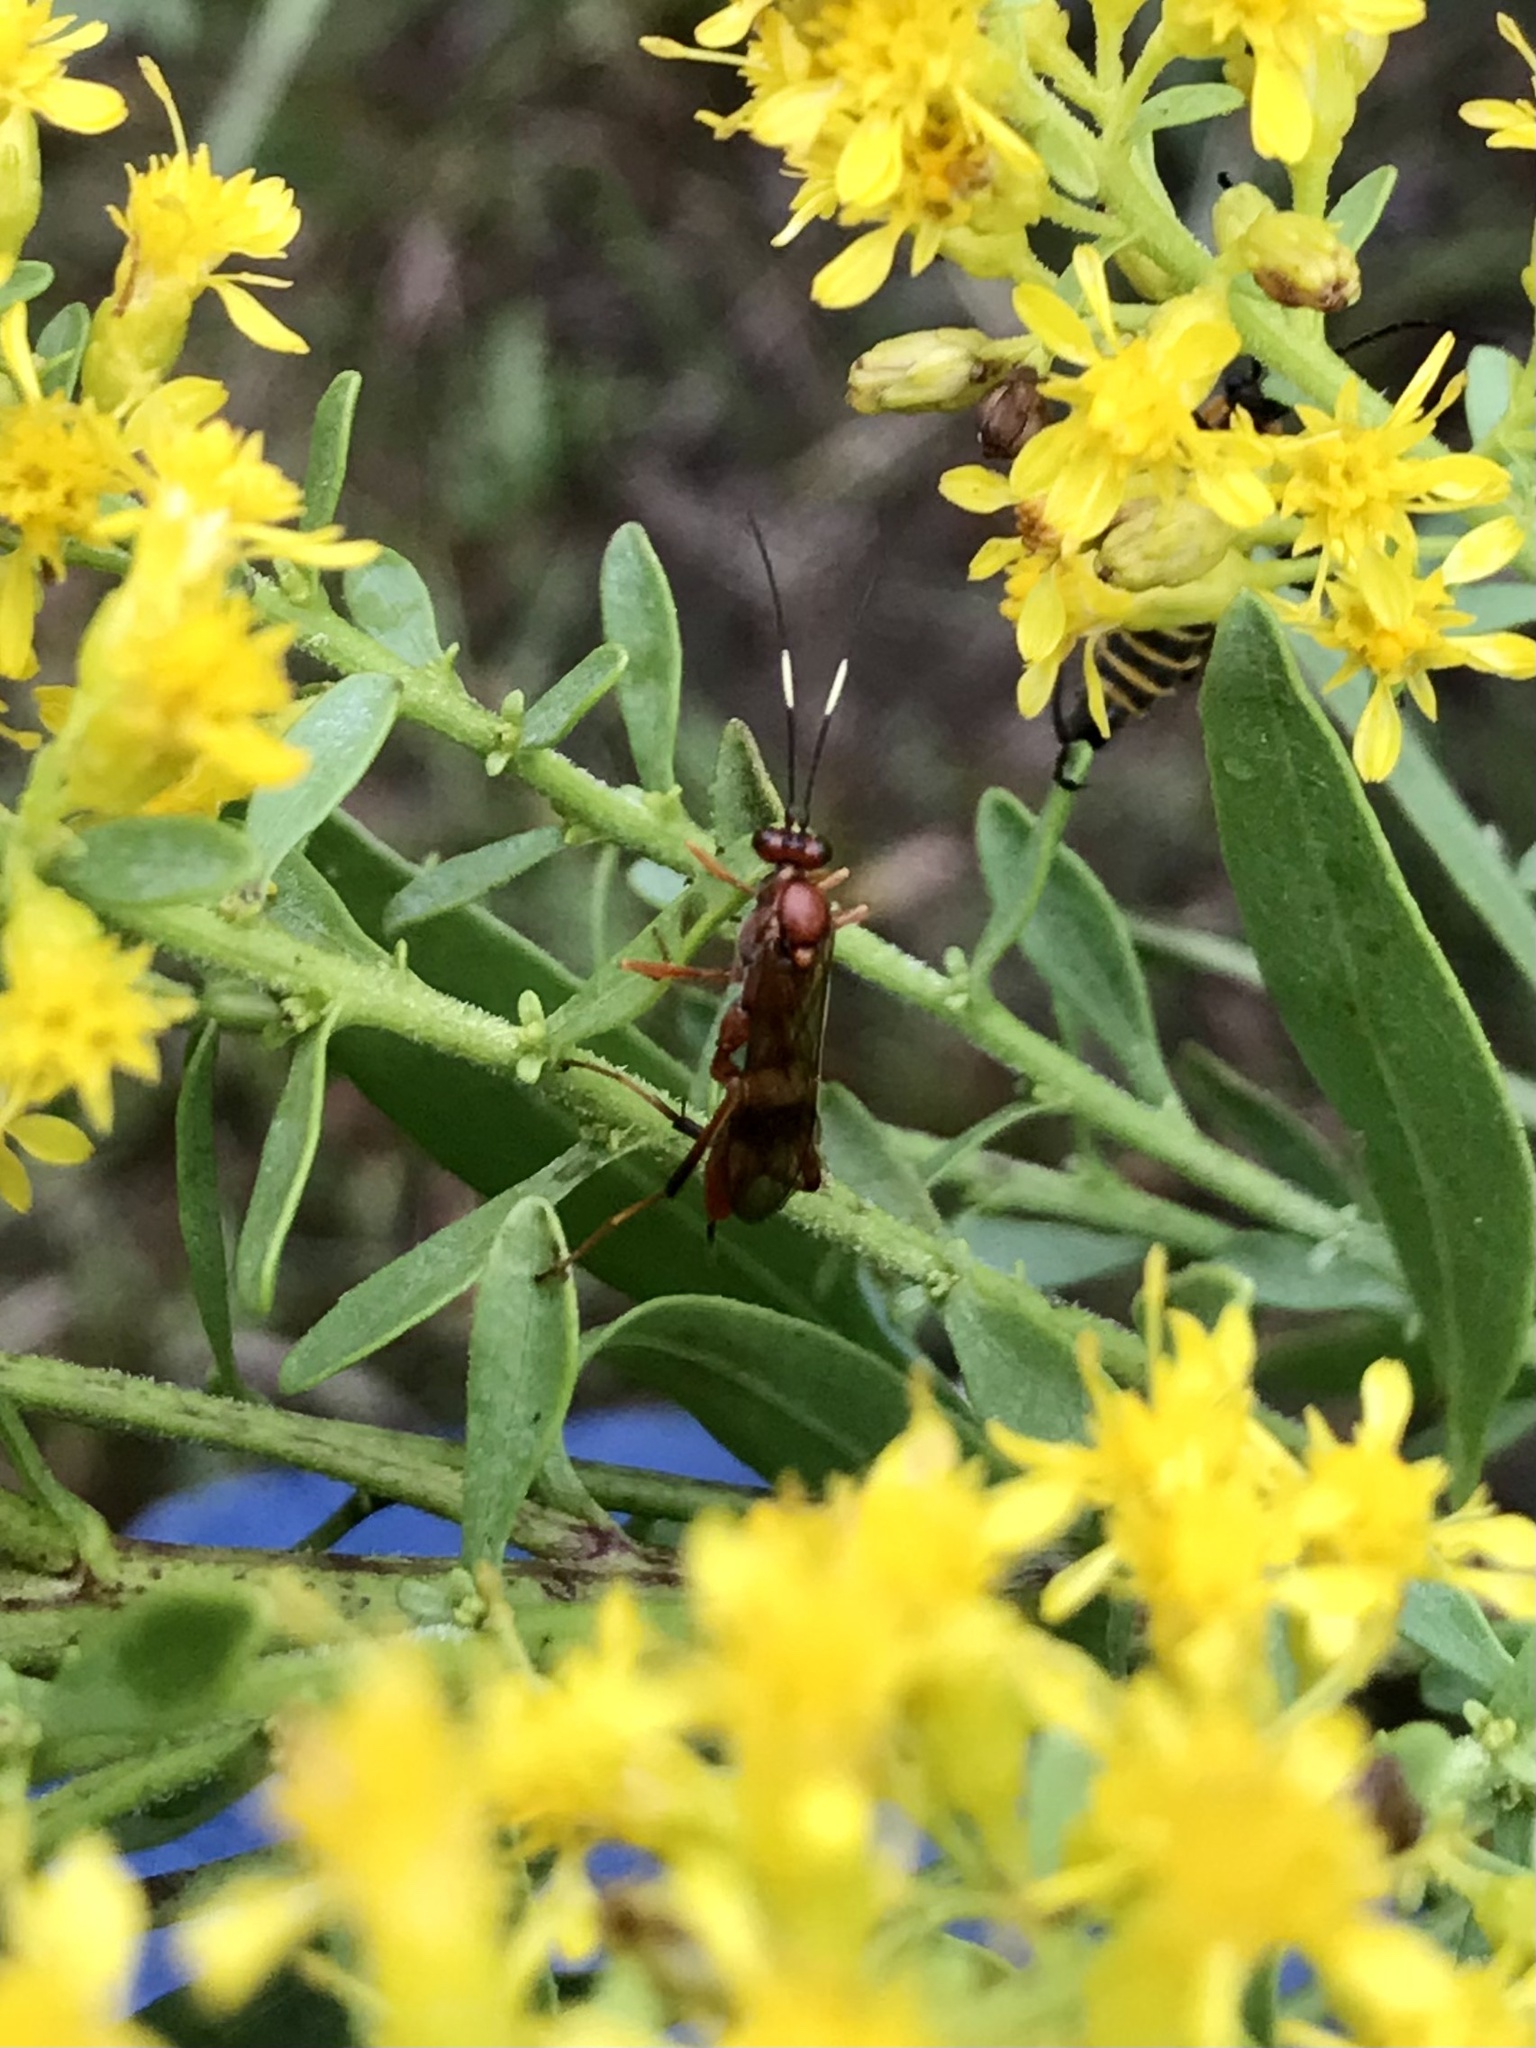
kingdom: Animalia
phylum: Arthropoda
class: Insecta
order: Hymenoptera
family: Ichneumonidae
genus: Exetastes
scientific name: Exetastes angustoralis
